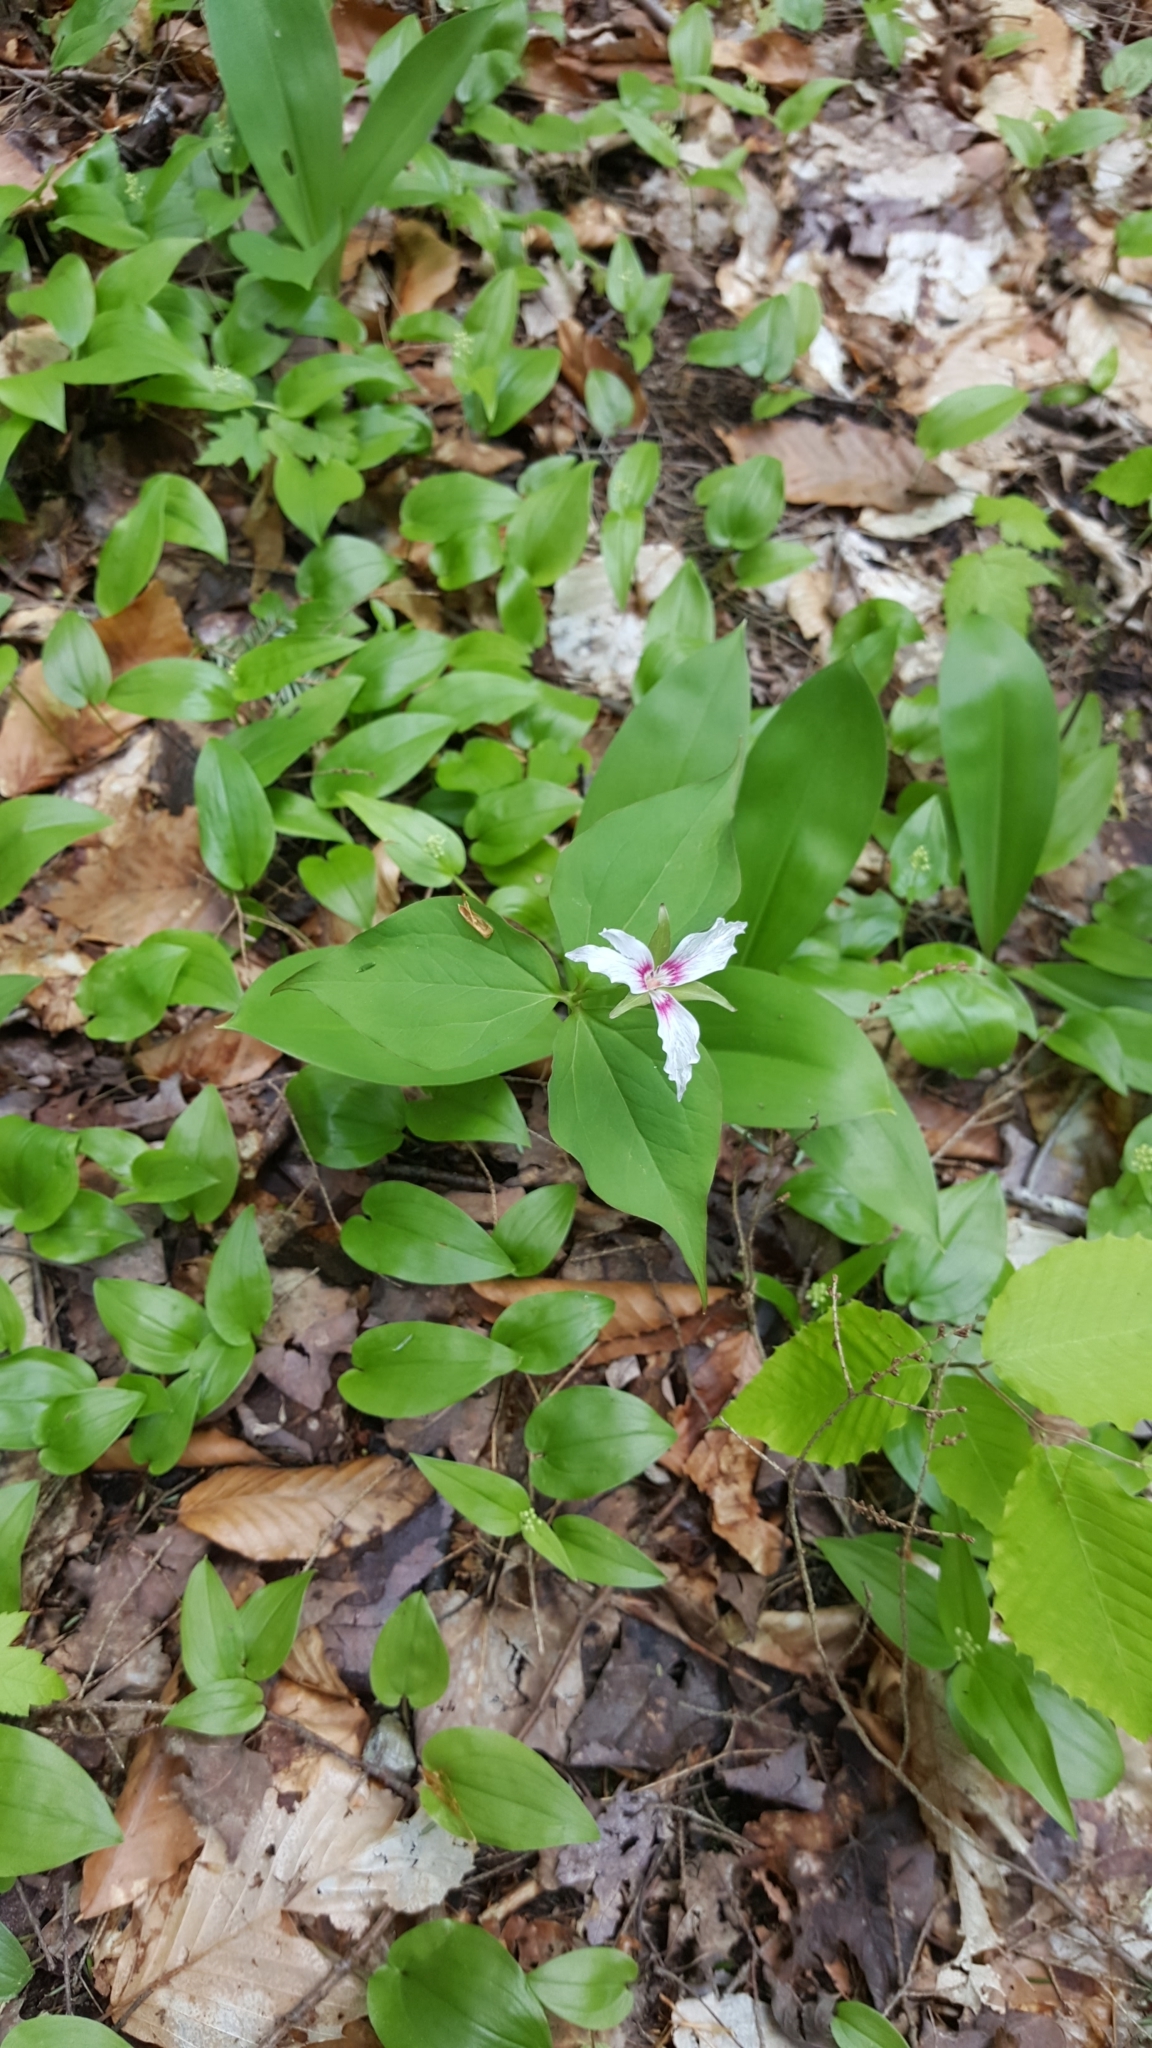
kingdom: Plantae
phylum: Tracheophyta
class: Liliopsida
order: Liliales
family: Melanthiaceae
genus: Trillium
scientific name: Trillium undulatum
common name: Paint trillium
